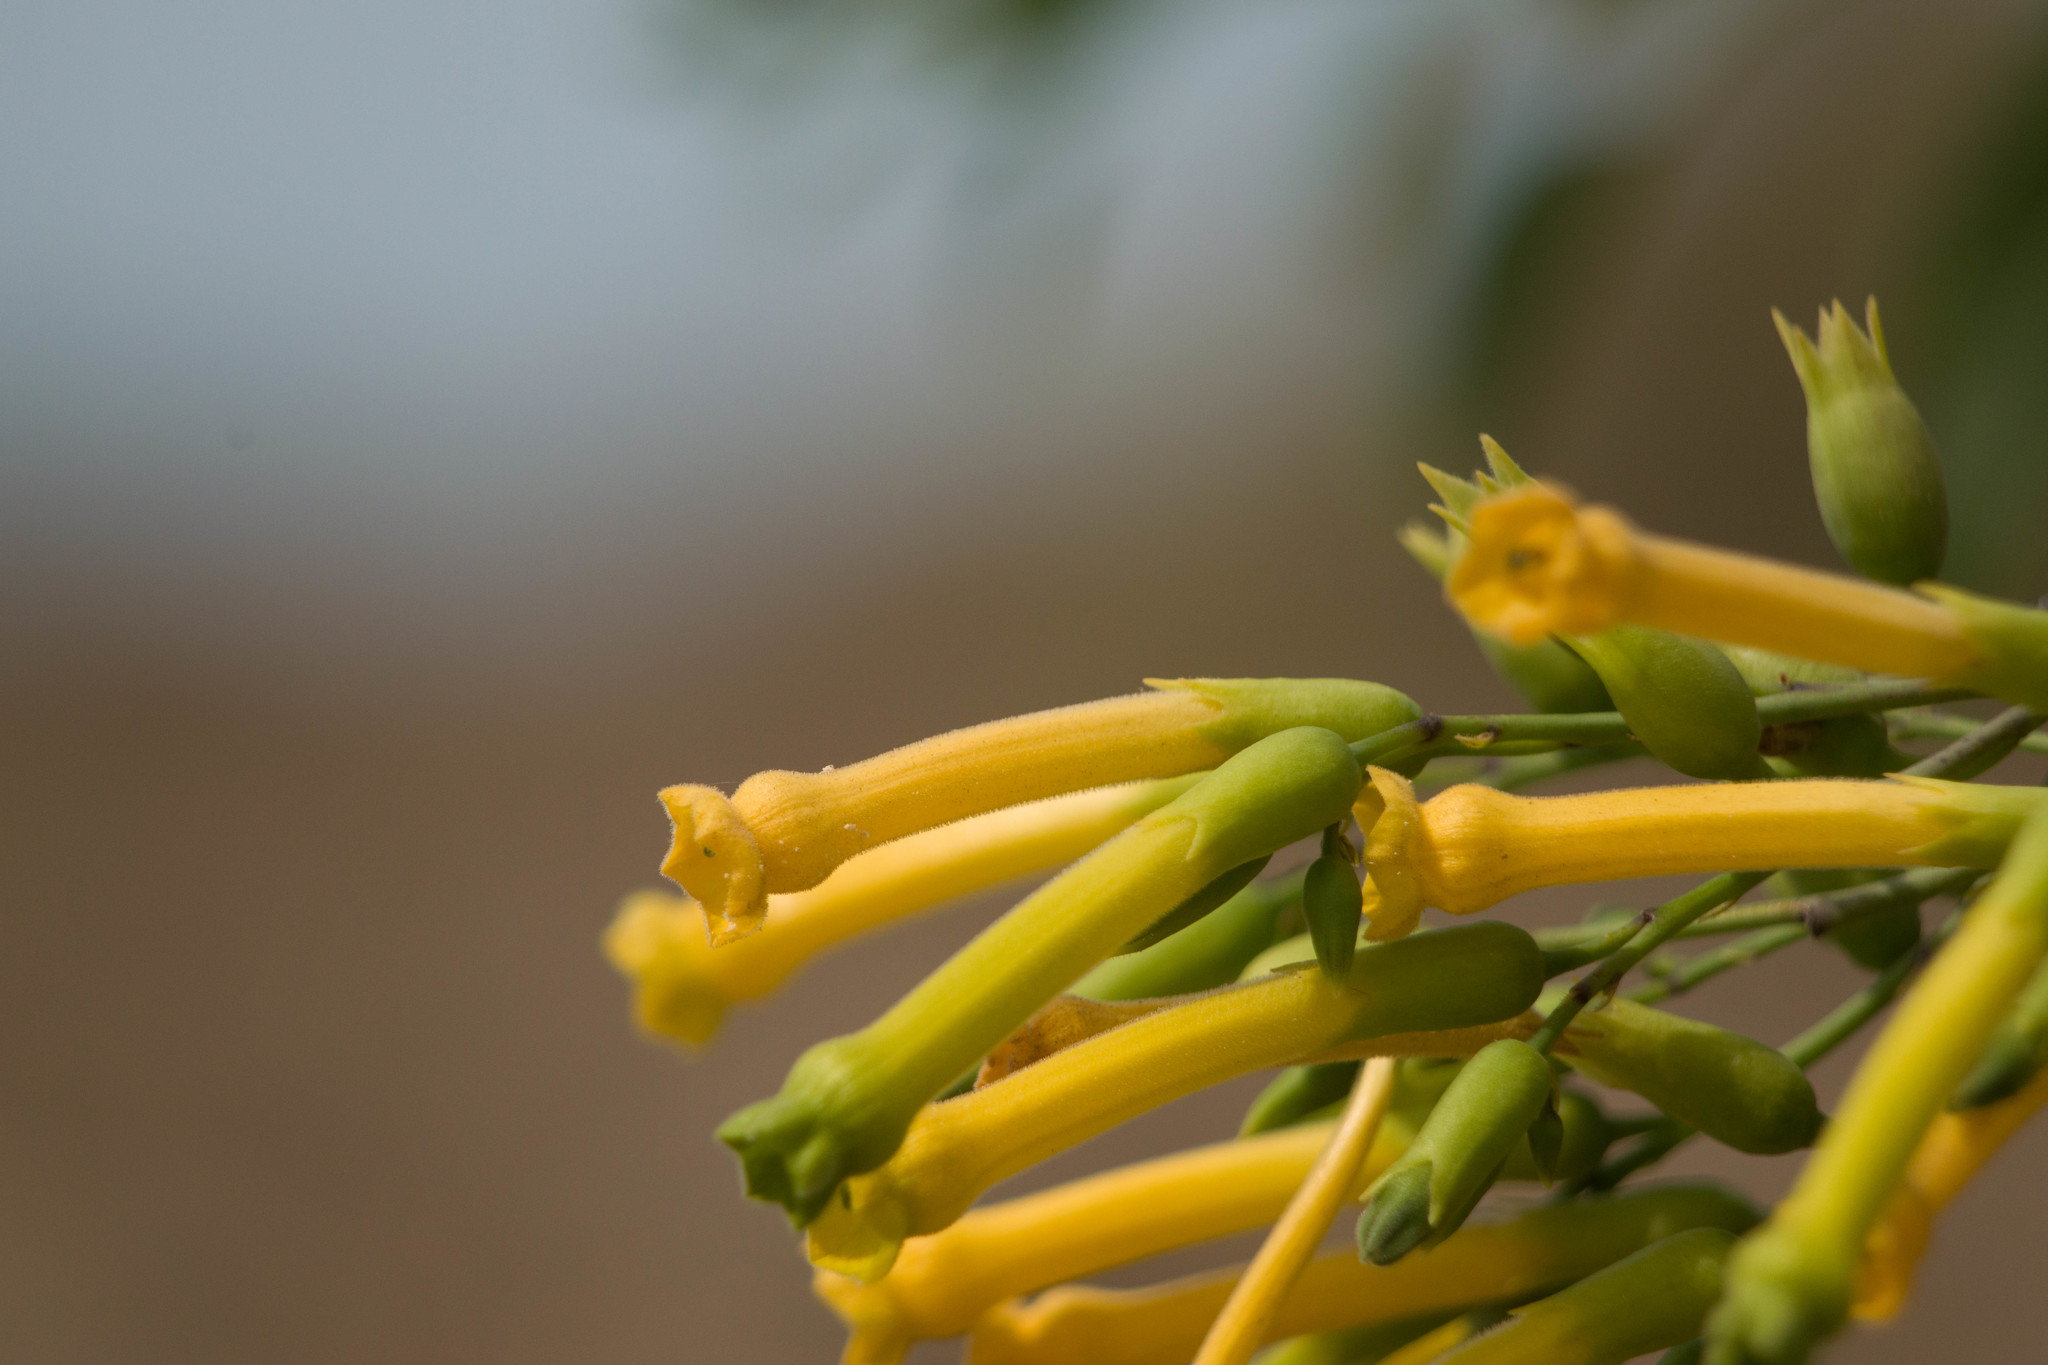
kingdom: Plantae
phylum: Tracheophyta
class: Magnoliopsida
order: Solanales
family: Solanaceae
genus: Nicotiana
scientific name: Nicotiana glauca
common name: Tree tobacco
